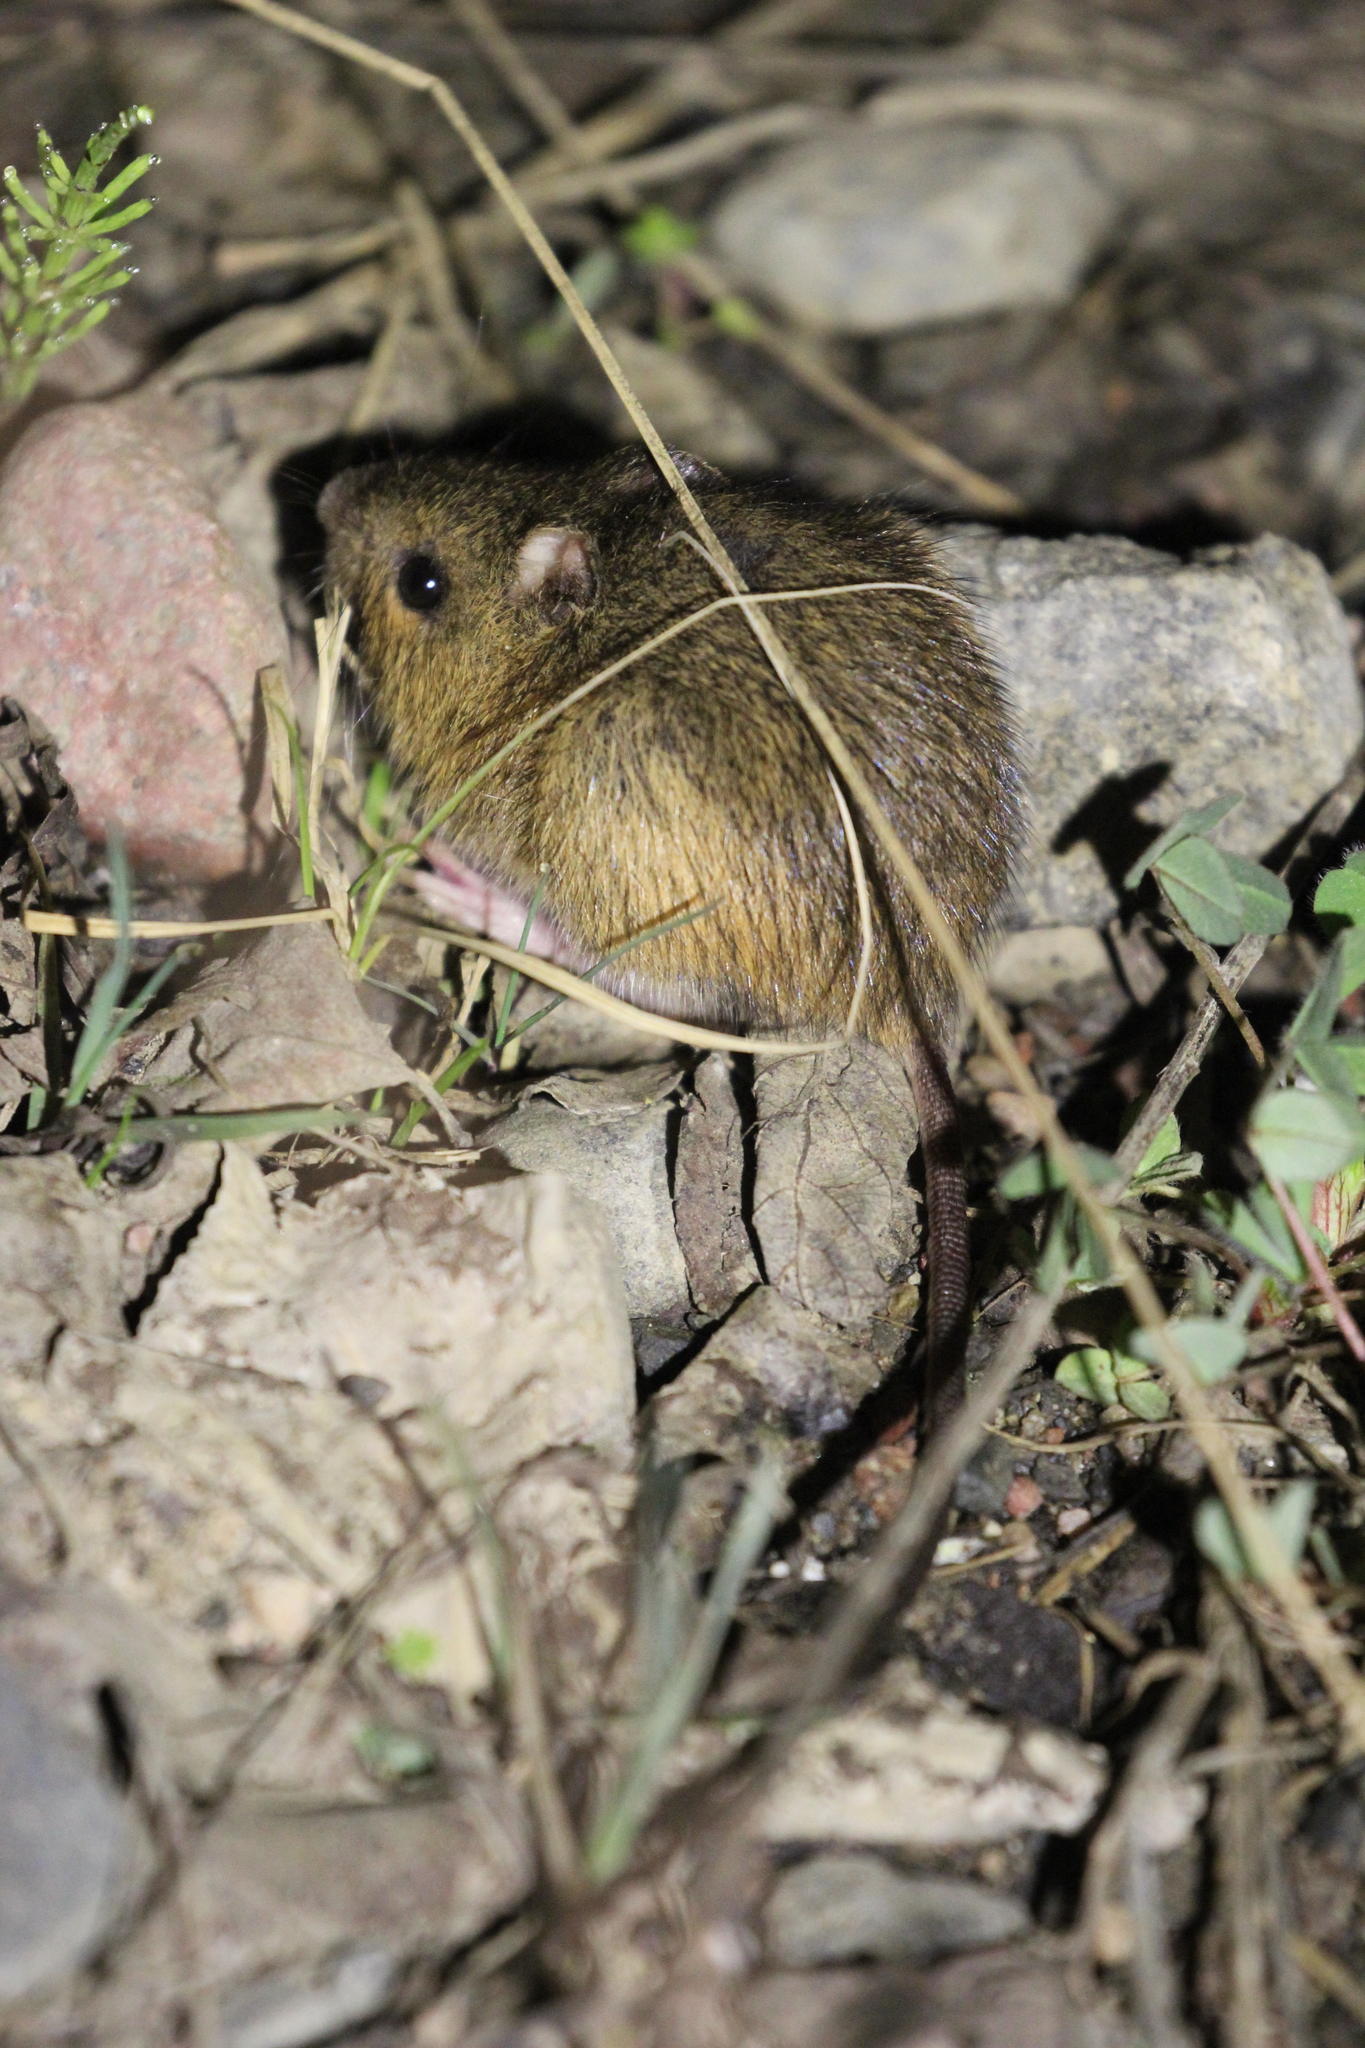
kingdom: Animalia
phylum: Chordata
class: Mammalia
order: Rodentia
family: Dipodidae
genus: Zapus
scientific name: Zapus hudsonius
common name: Meadow jumping mouse
